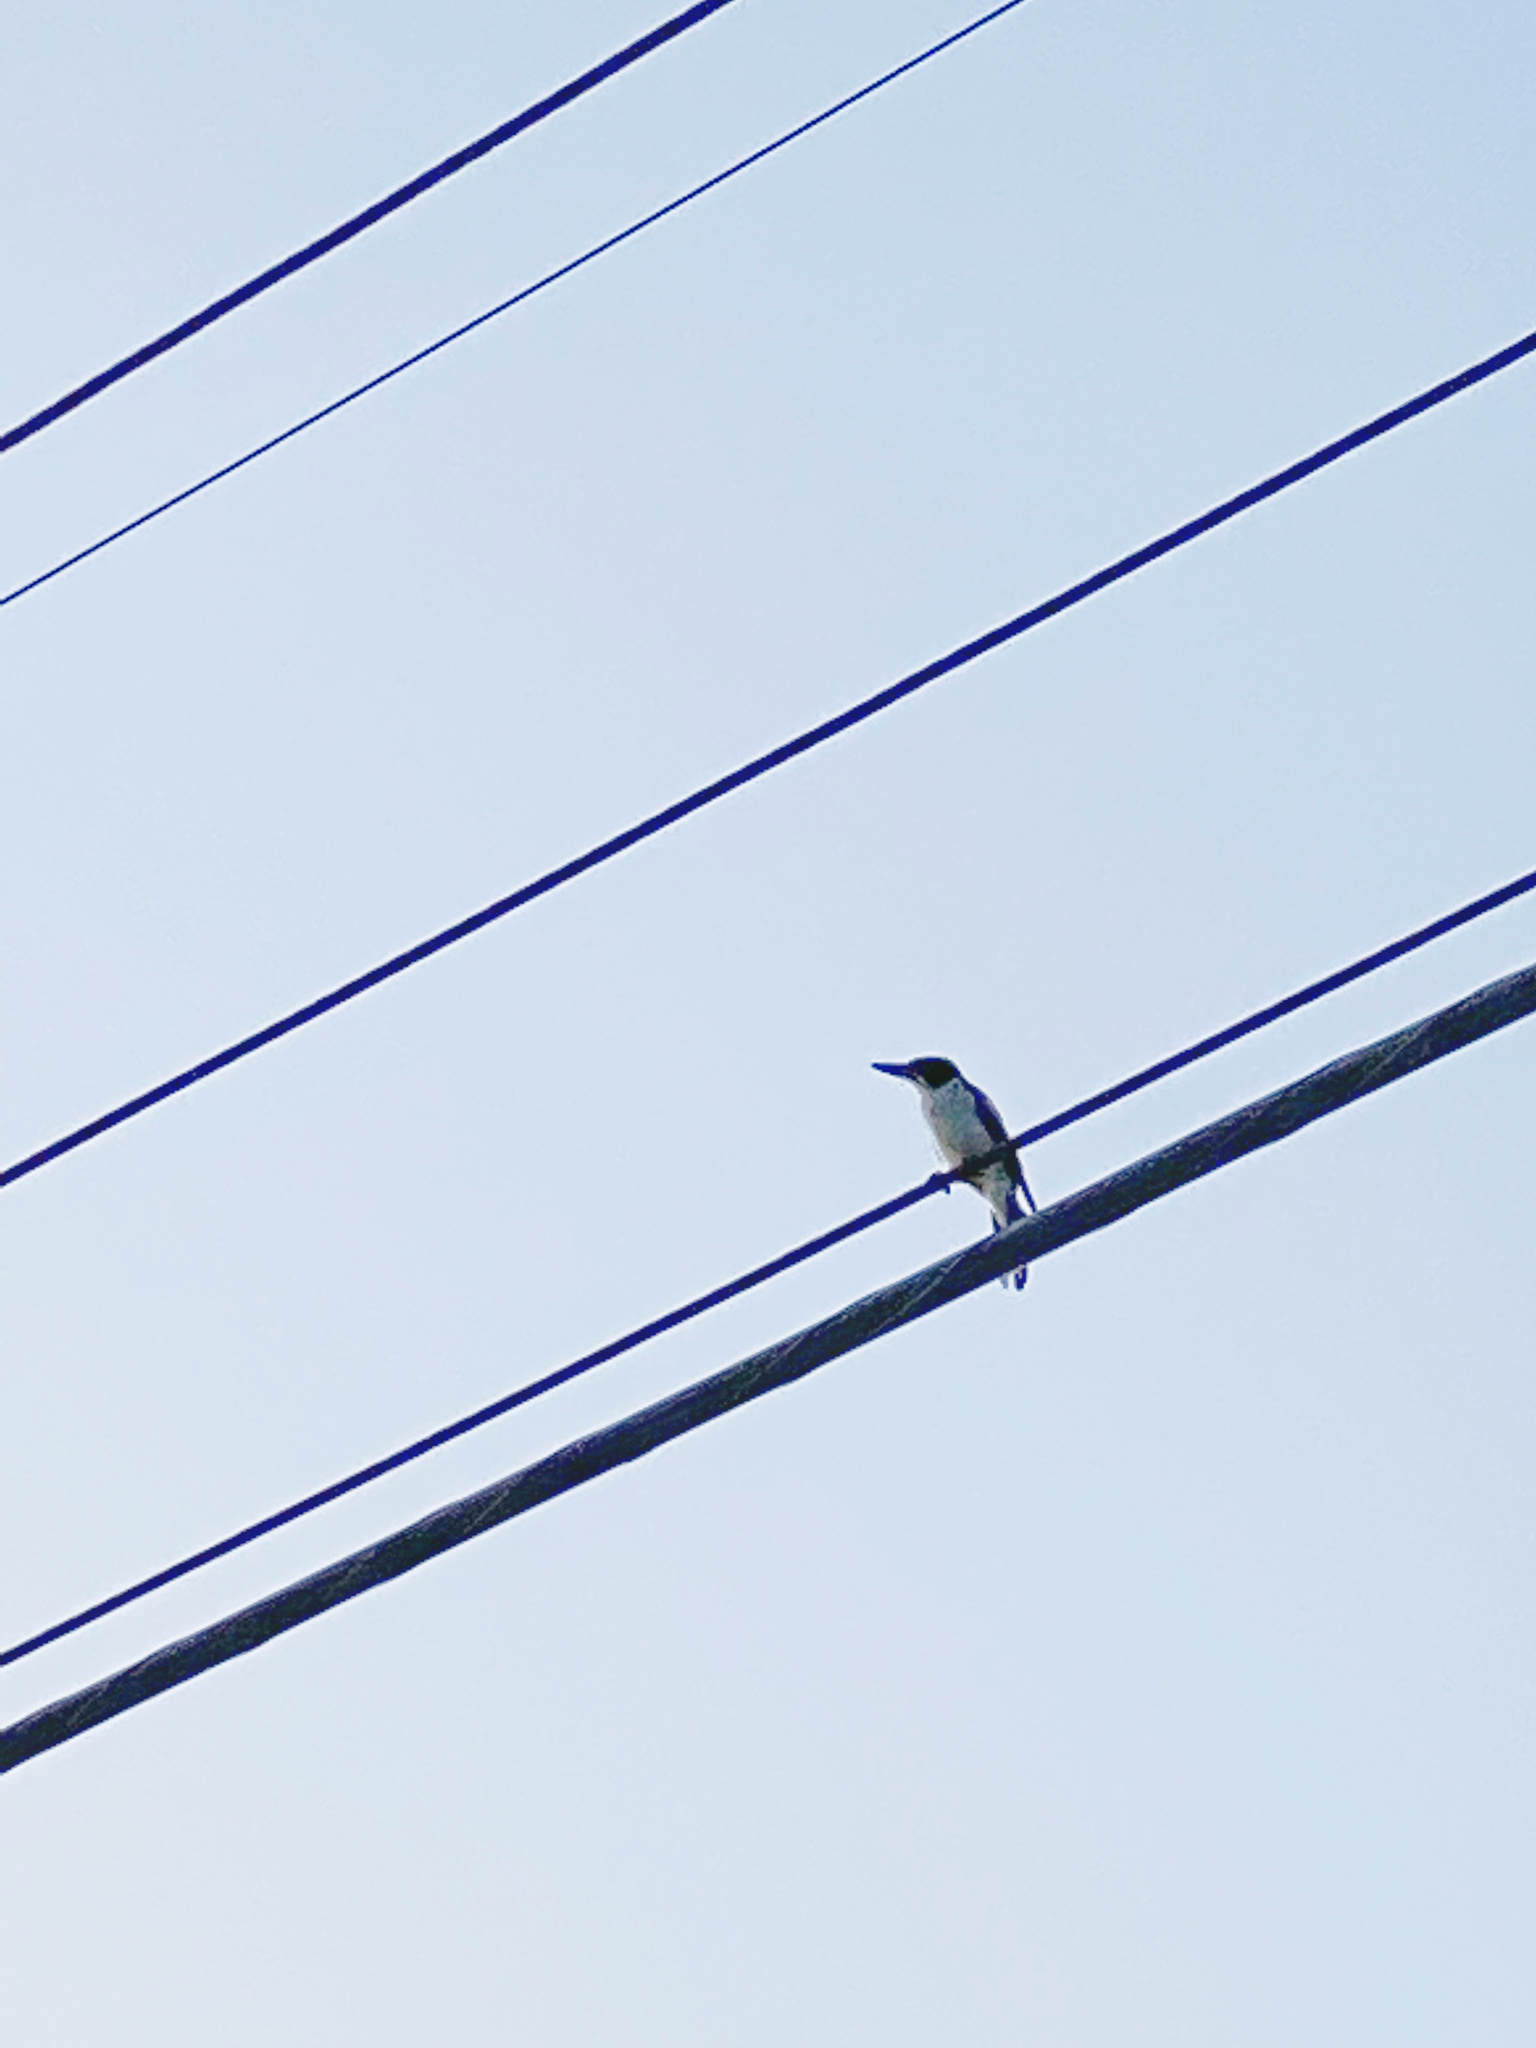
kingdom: Animalia
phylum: Chordata
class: Aves
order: Passeriformes
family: Cracticidae
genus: Cracticus
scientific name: Cracticus torquatus
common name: Grey butcherbird
